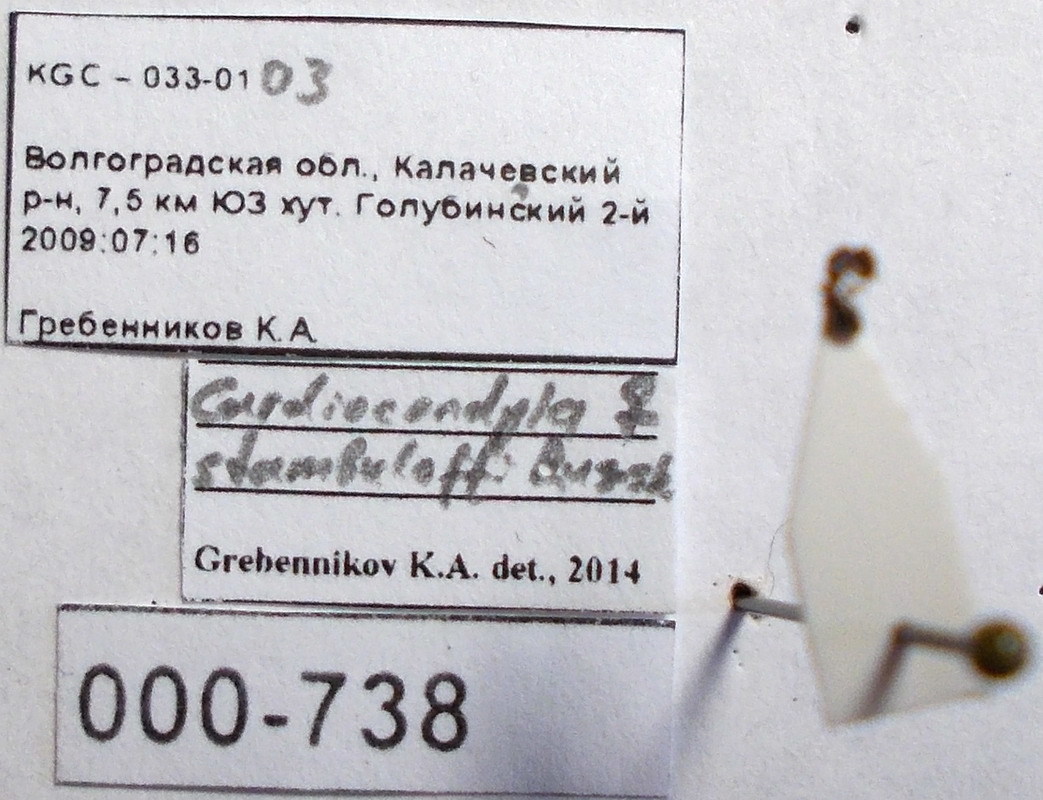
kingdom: Animalia
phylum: Arthropoda
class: Insecta
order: Hymenoptera
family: Formicidae
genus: Cardiocondyla
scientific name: Cardiocondyla stambuloffii
